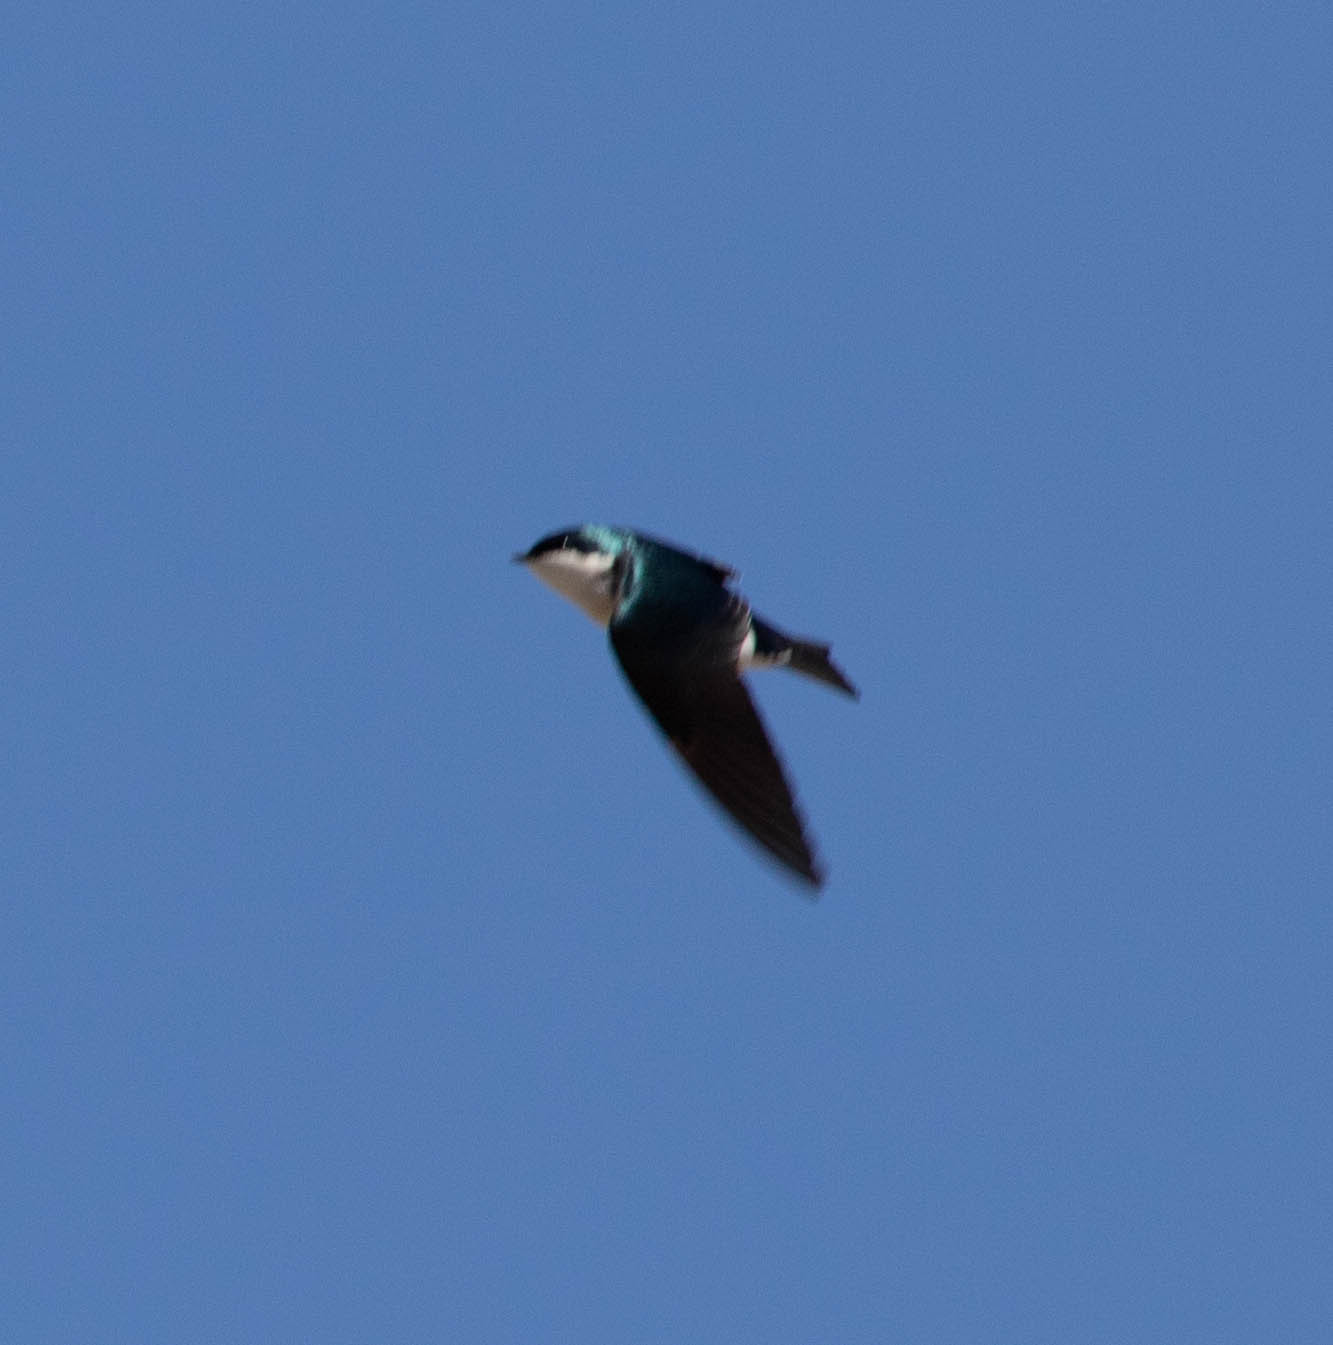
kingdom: Animalia
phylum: Chordata
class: Aves
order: Passeriformes
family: Hirundinidae
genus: Tachycineta
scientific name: Tachycineta bicolor
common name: Tree swallow
